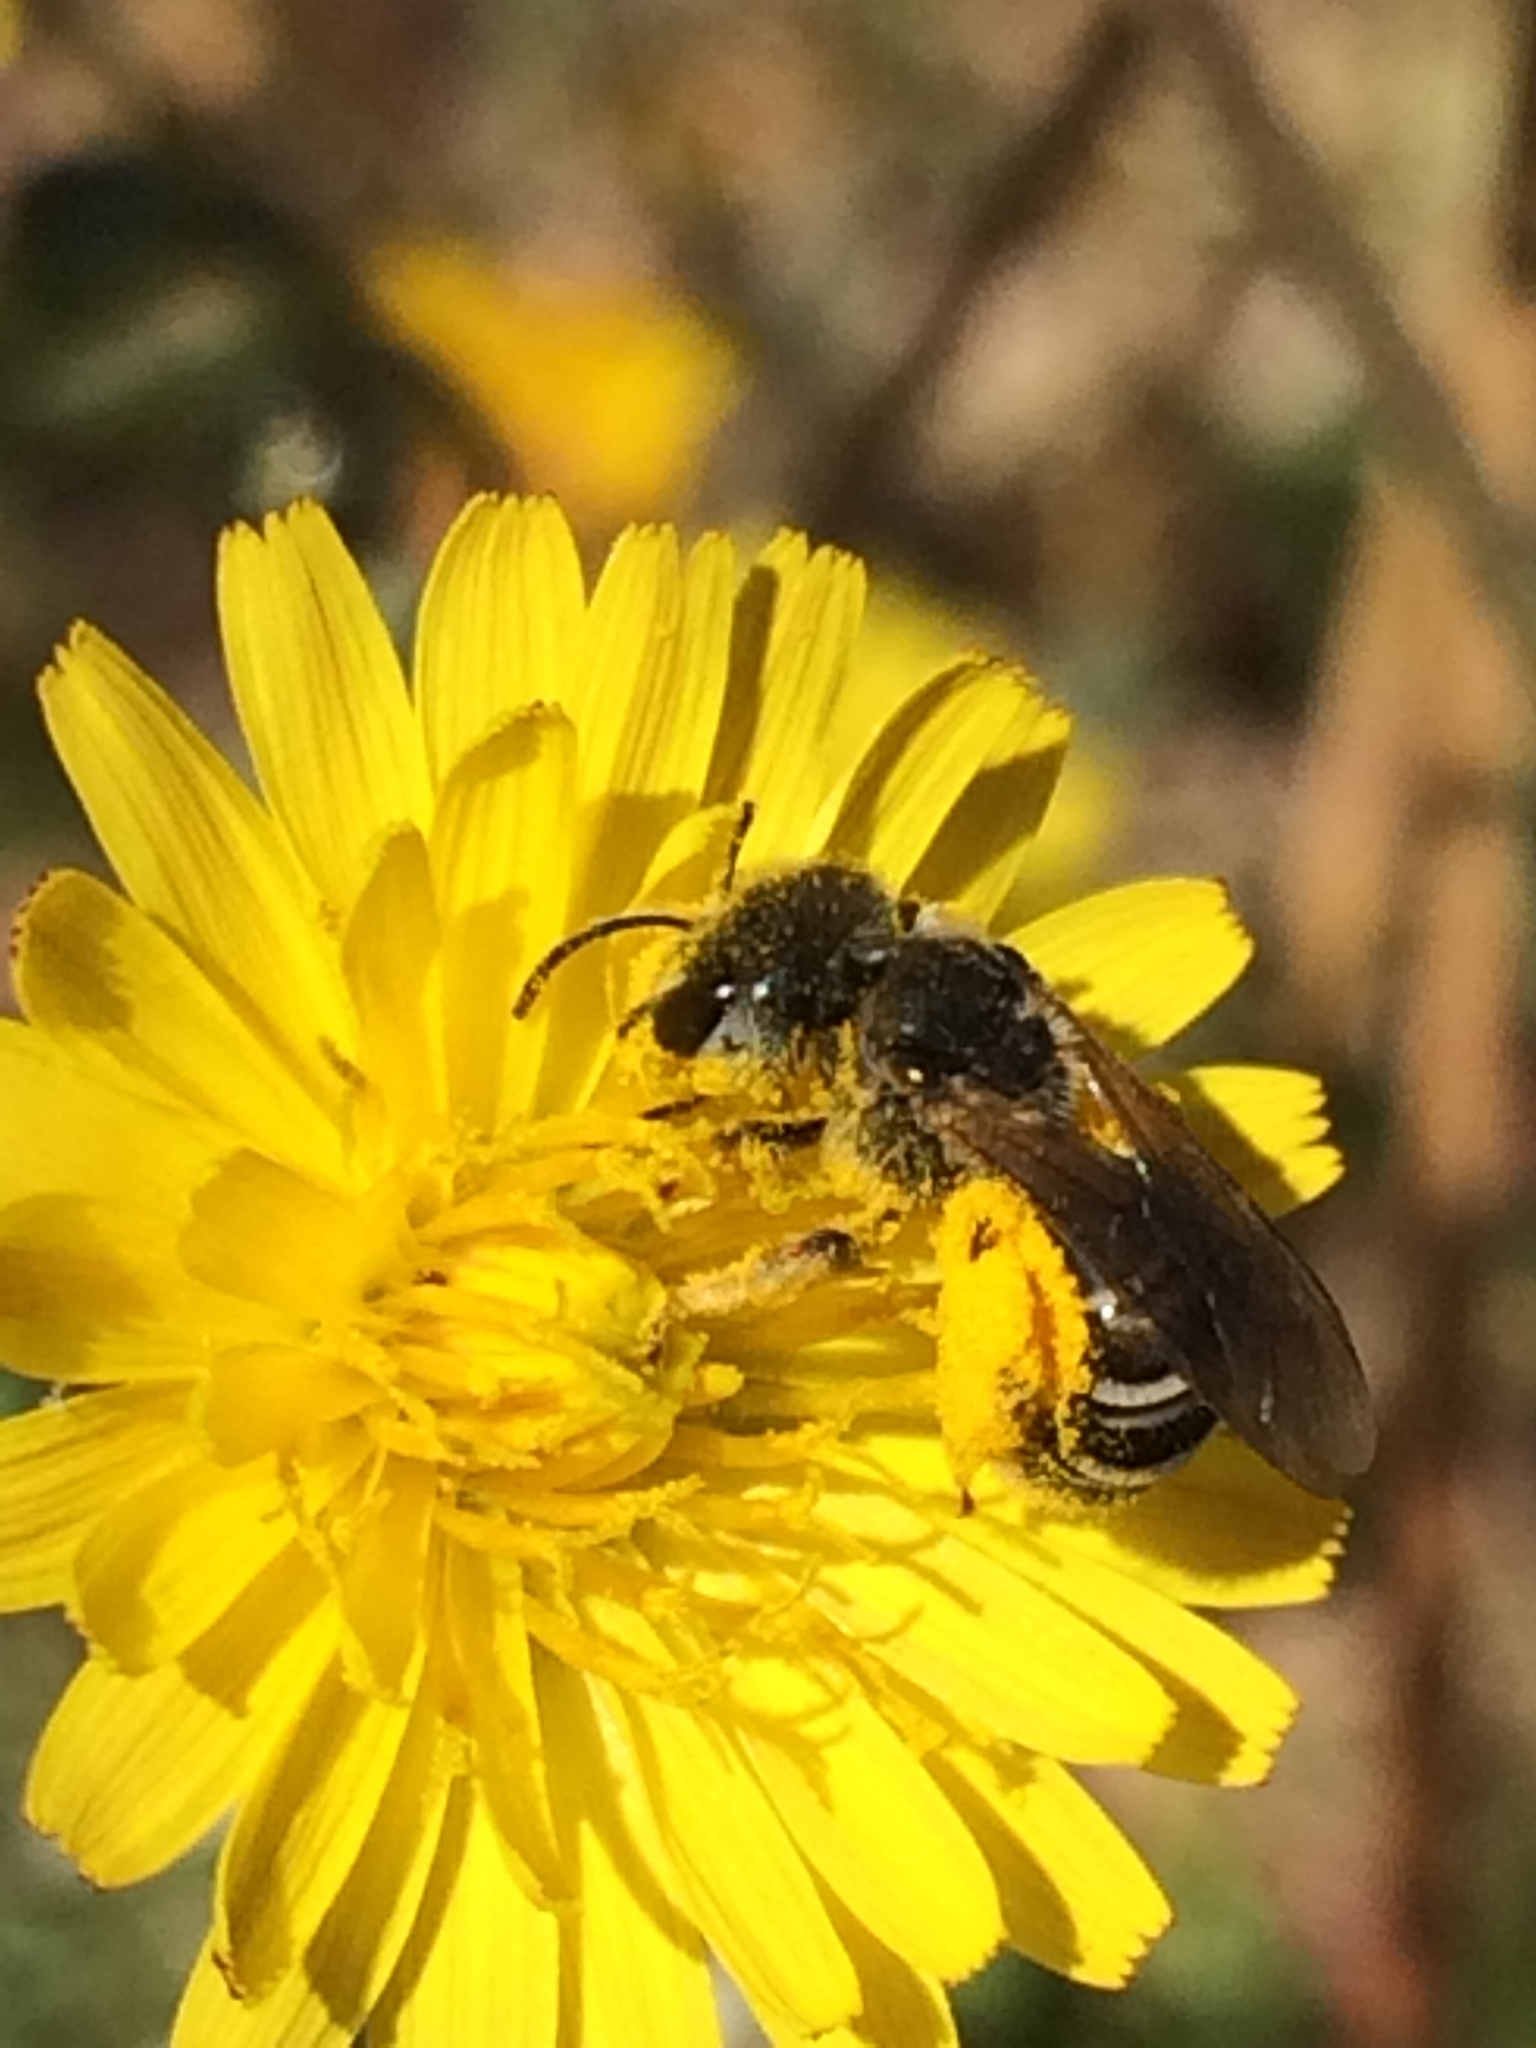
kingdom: Animalia
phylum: Arthropoda
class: Insecta
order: Hymenoptera
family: Halictidae
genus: Halictus
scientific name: Halictus ligatus
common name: Ligated furrow bee
